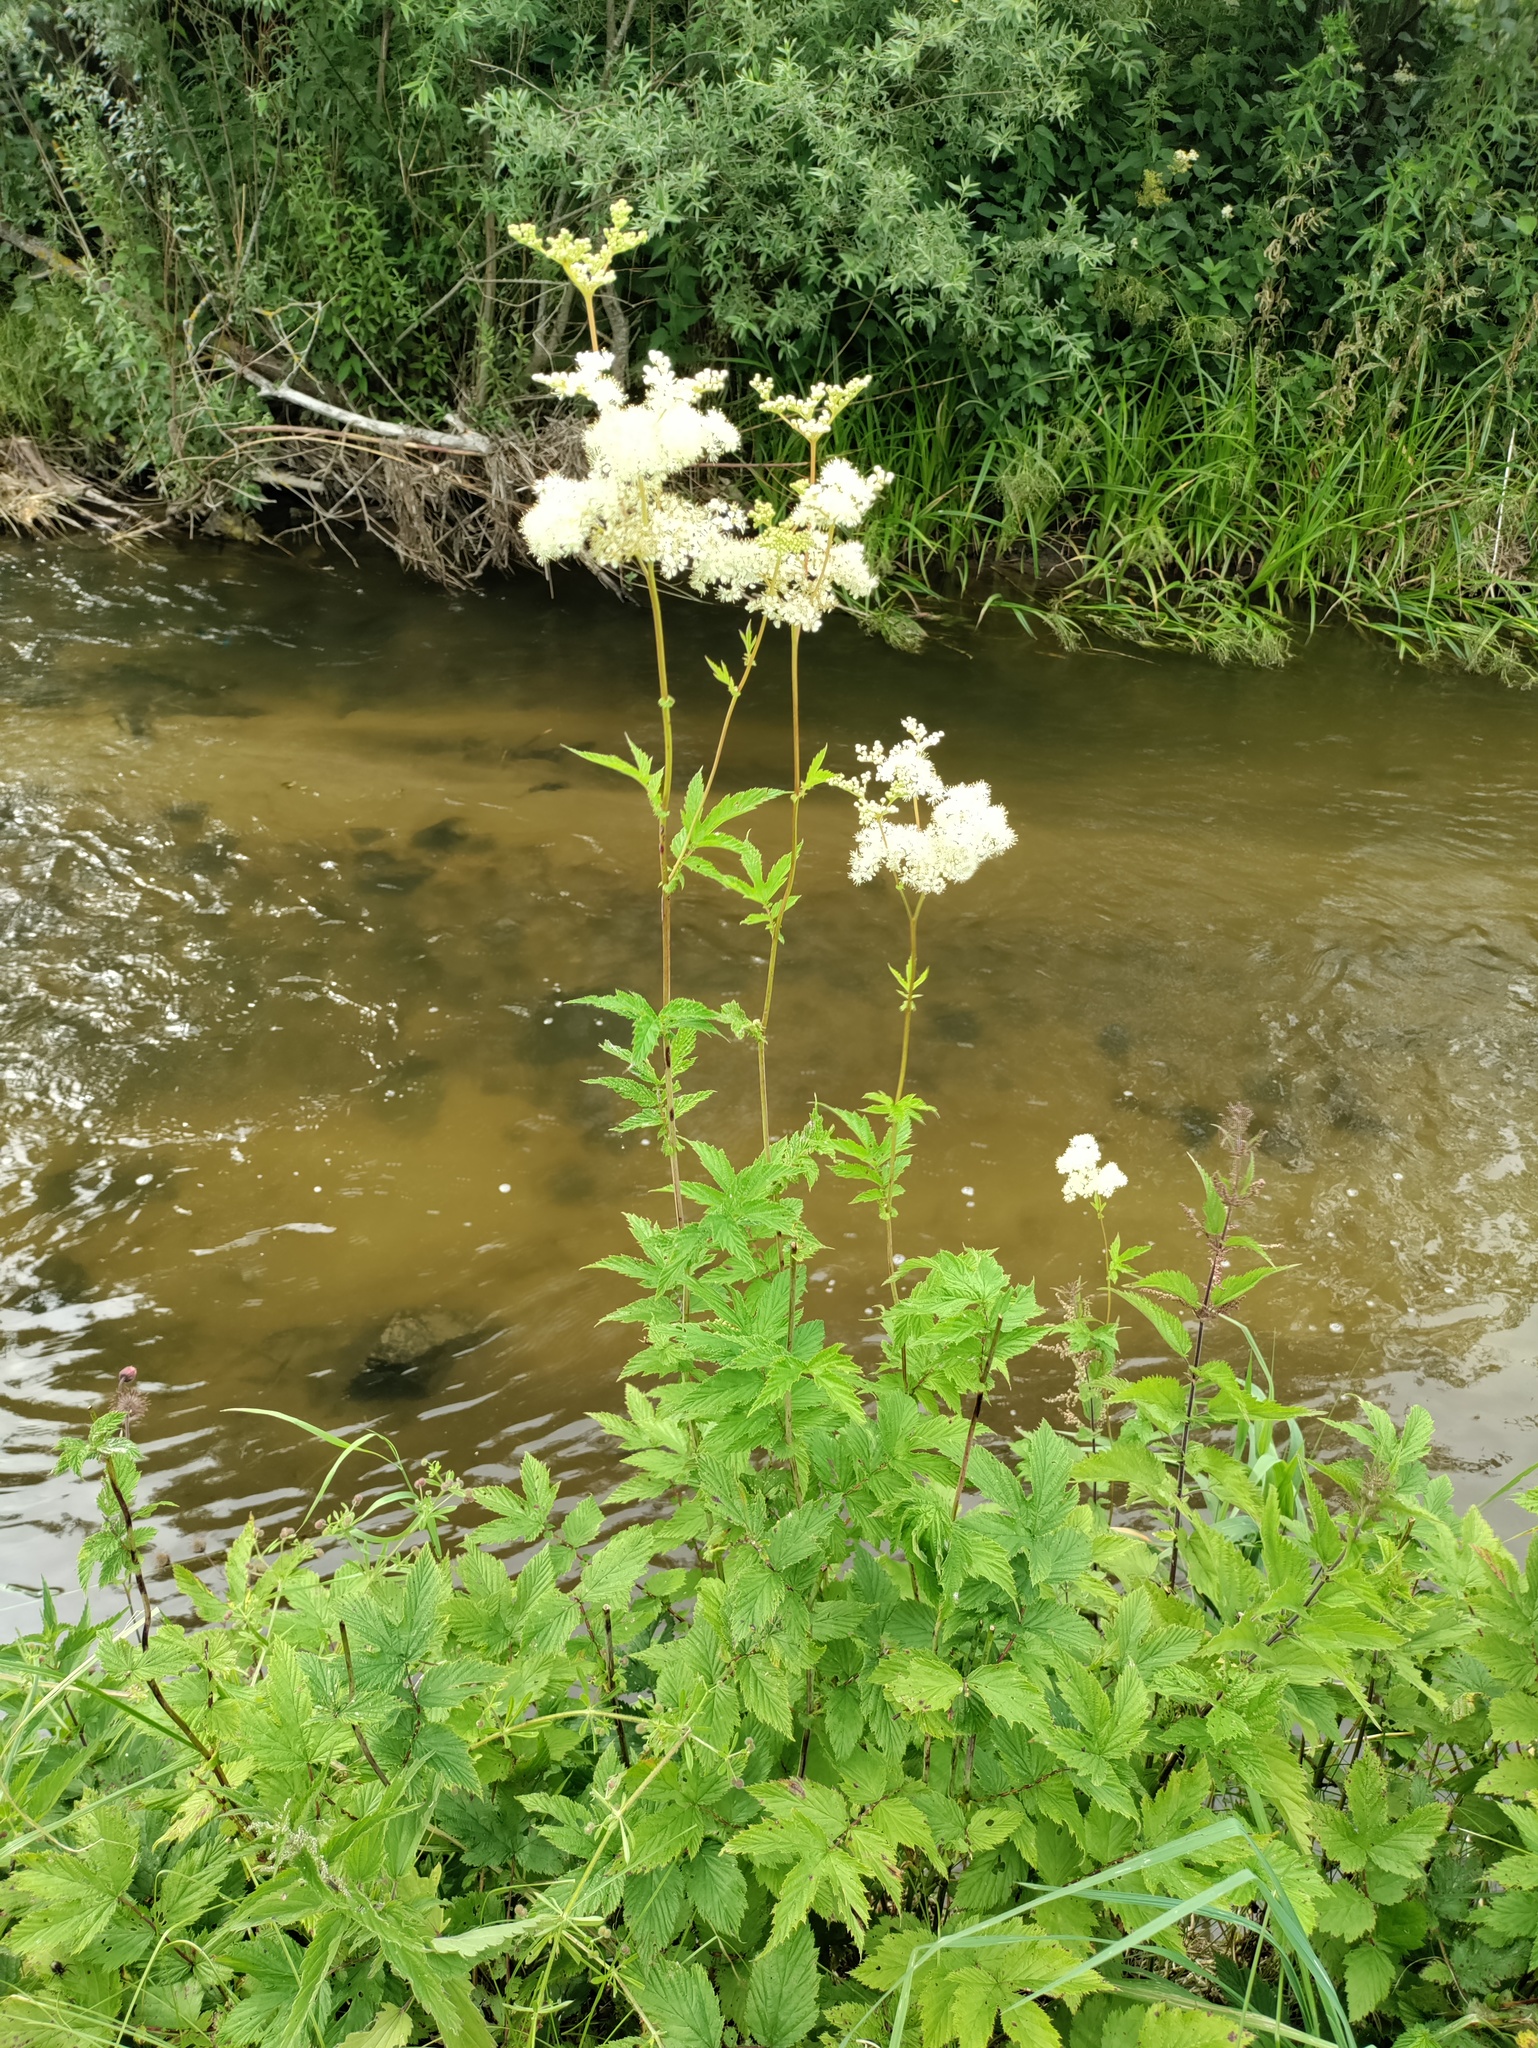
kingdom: Plantae
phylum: Tracheophyta
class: Magnoliopsida
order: Rosales
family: Rosaceae
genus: Filipendula
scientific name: Filipendula ulmaria
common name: Meadowsweet
